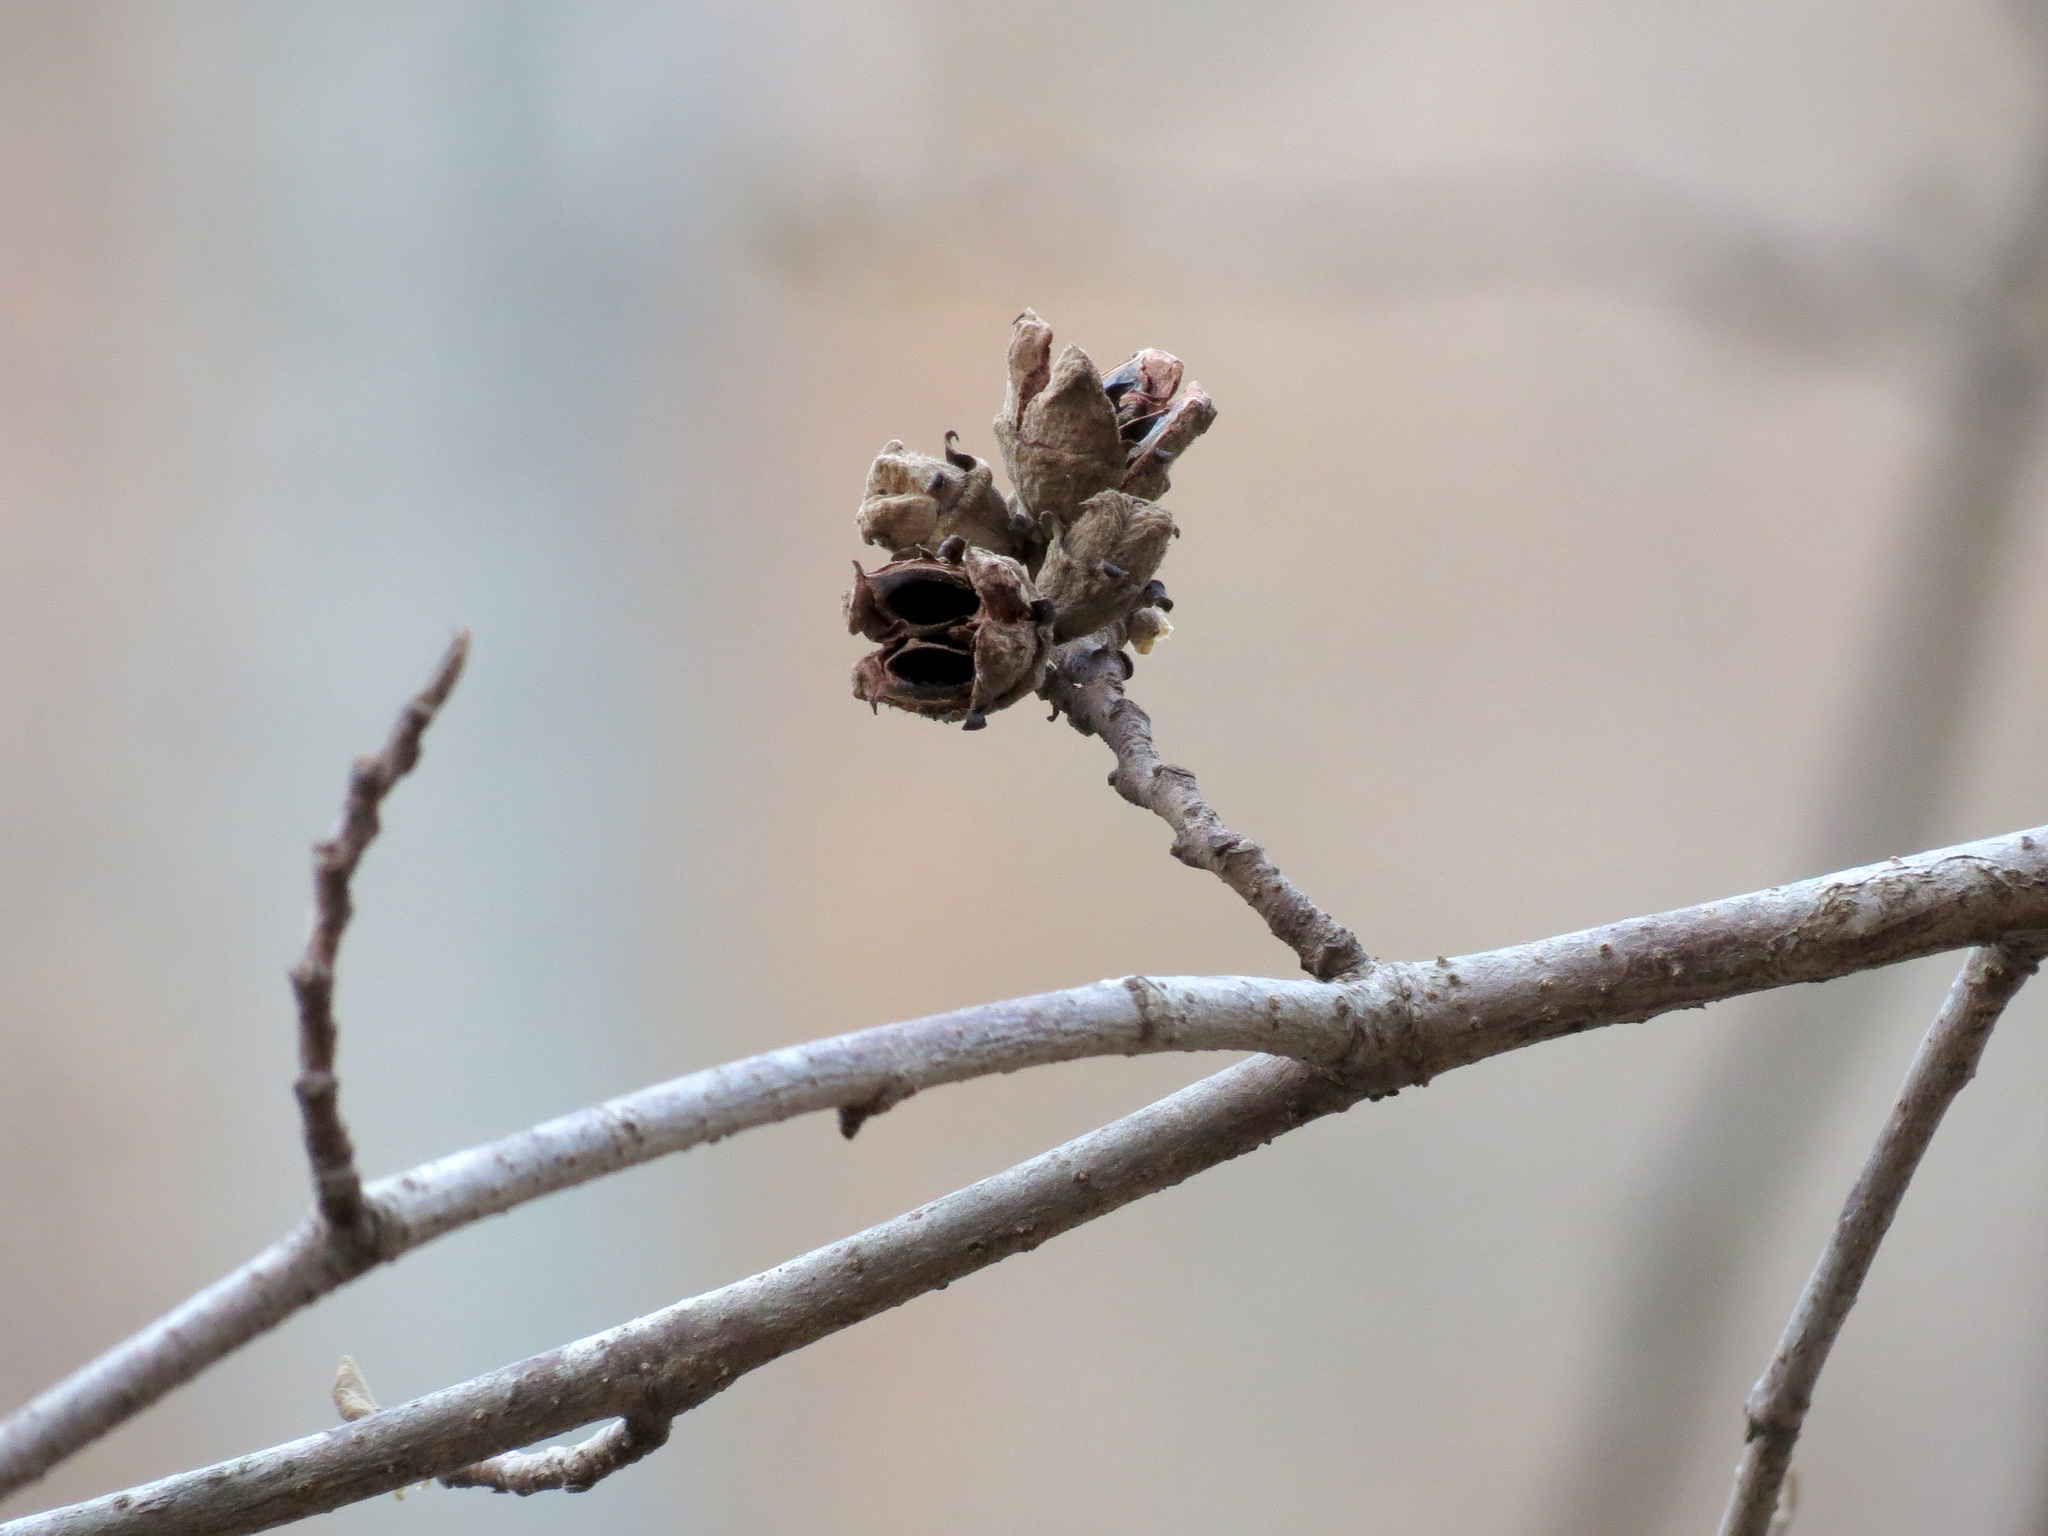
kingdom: Plantae
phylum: Tracheophyta
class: Magnoliopsida
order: Saxifragales
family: Hamamelidaceae
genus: Hamamelis
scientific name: Hamamelis virginiana
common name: Witch-hazel
